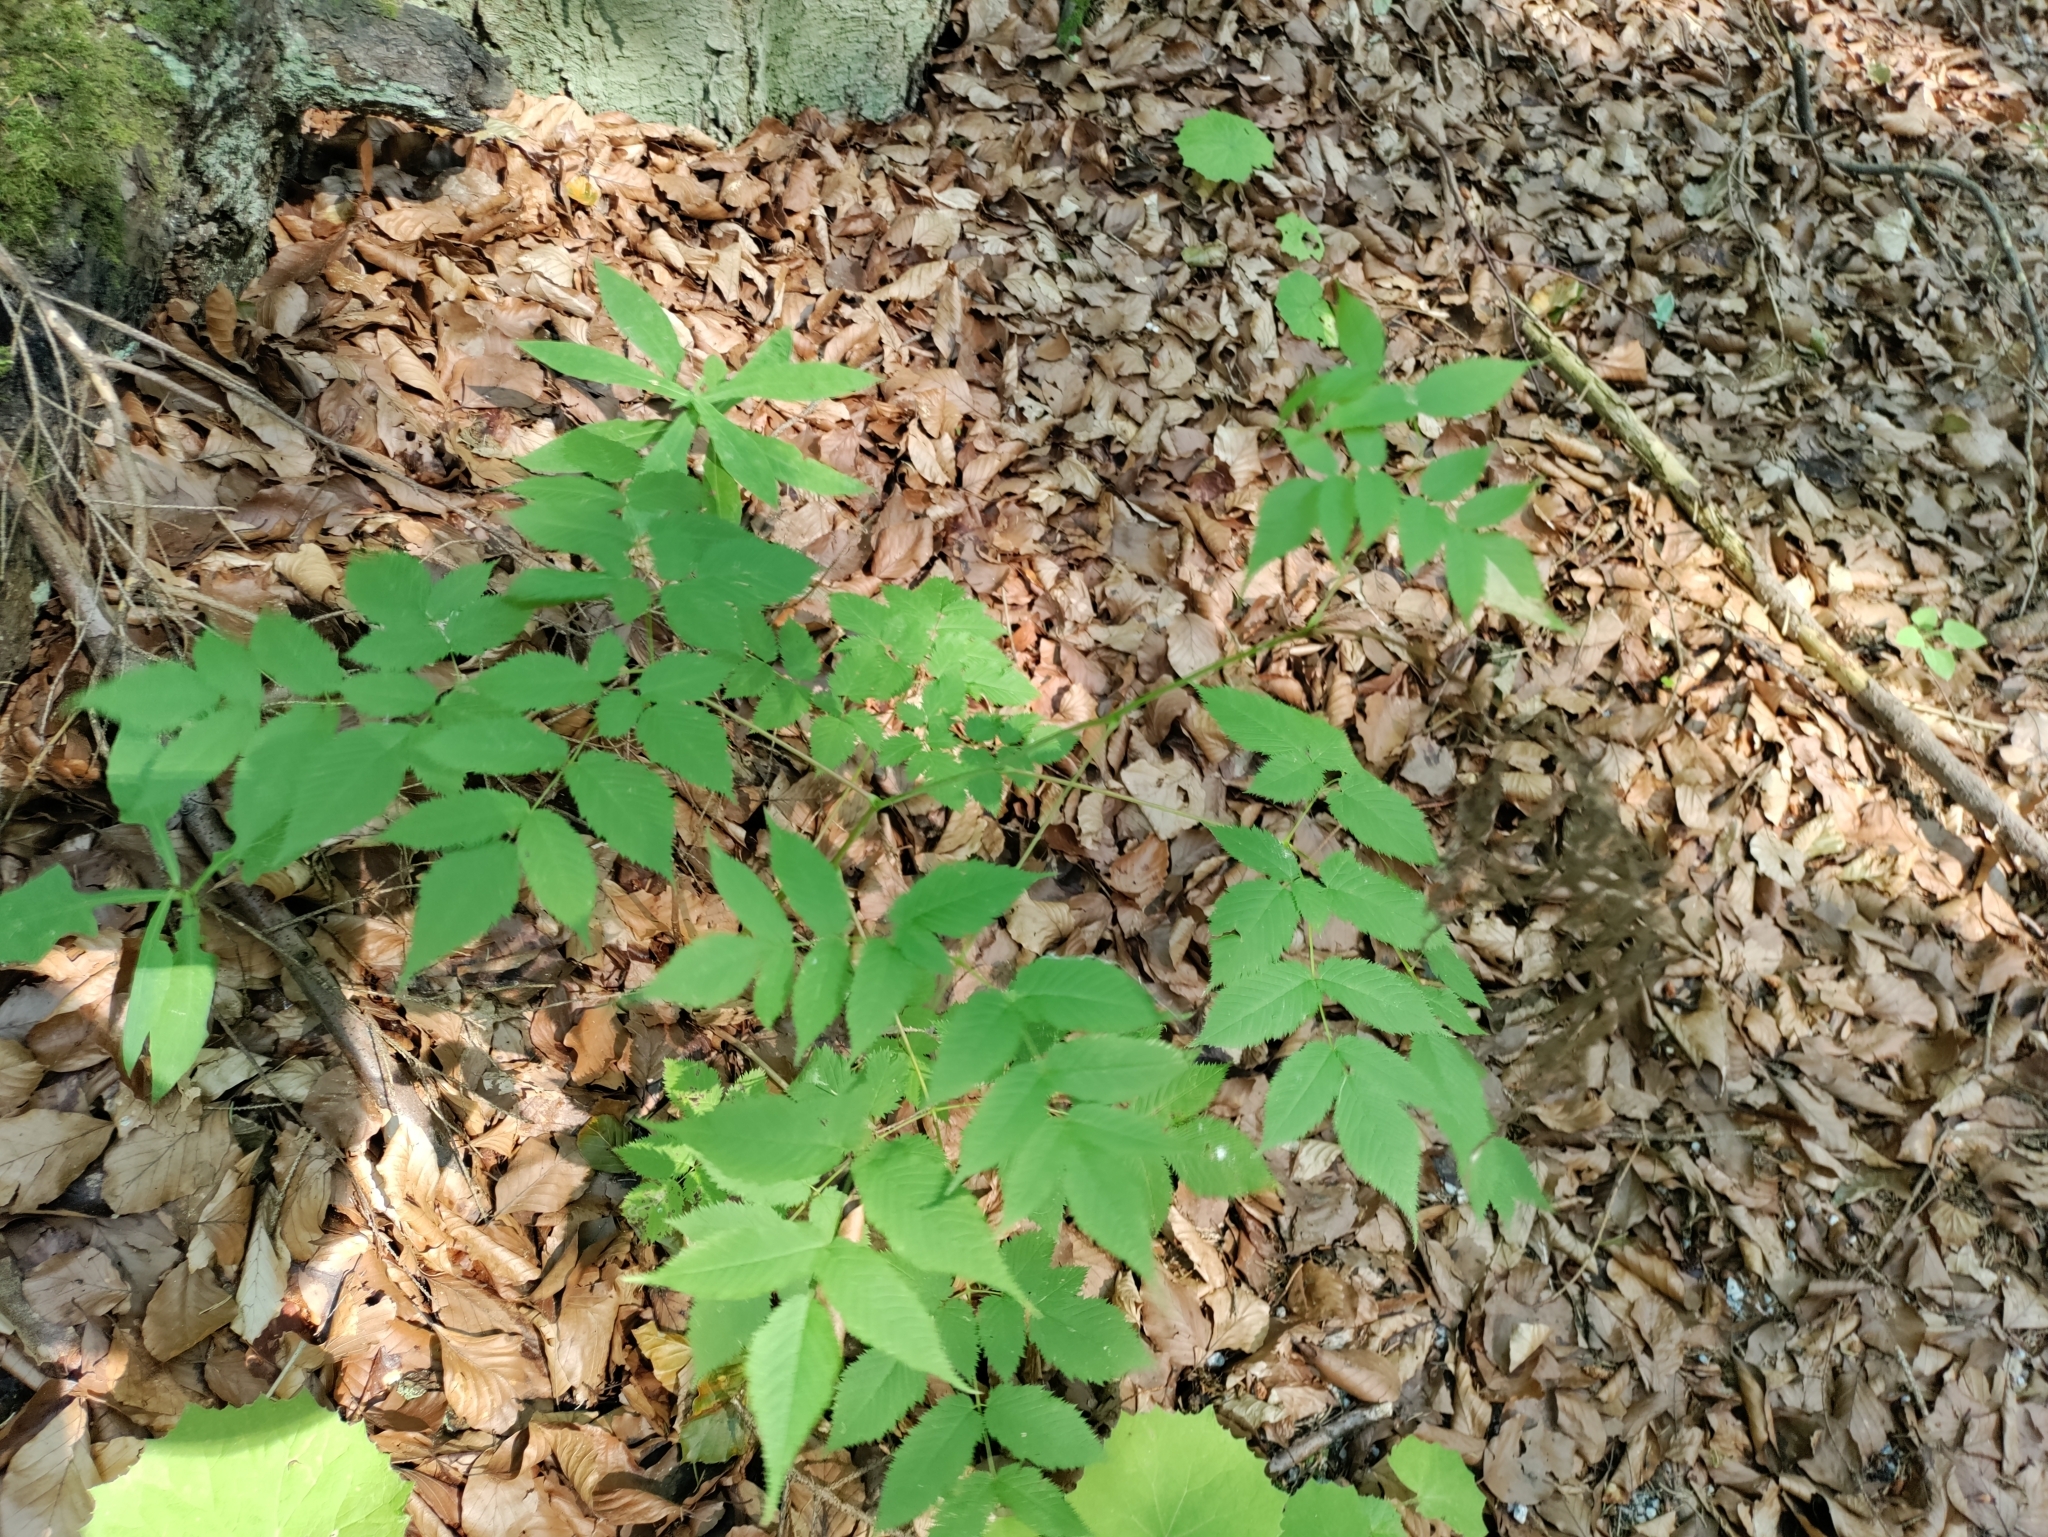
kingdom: Plantae
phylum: Tracheophyta
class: Magnoliopsida
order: Rosales
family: Rosaceae
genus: Aruncus
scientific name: Aruncus dioicus
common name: Buck's-beard
